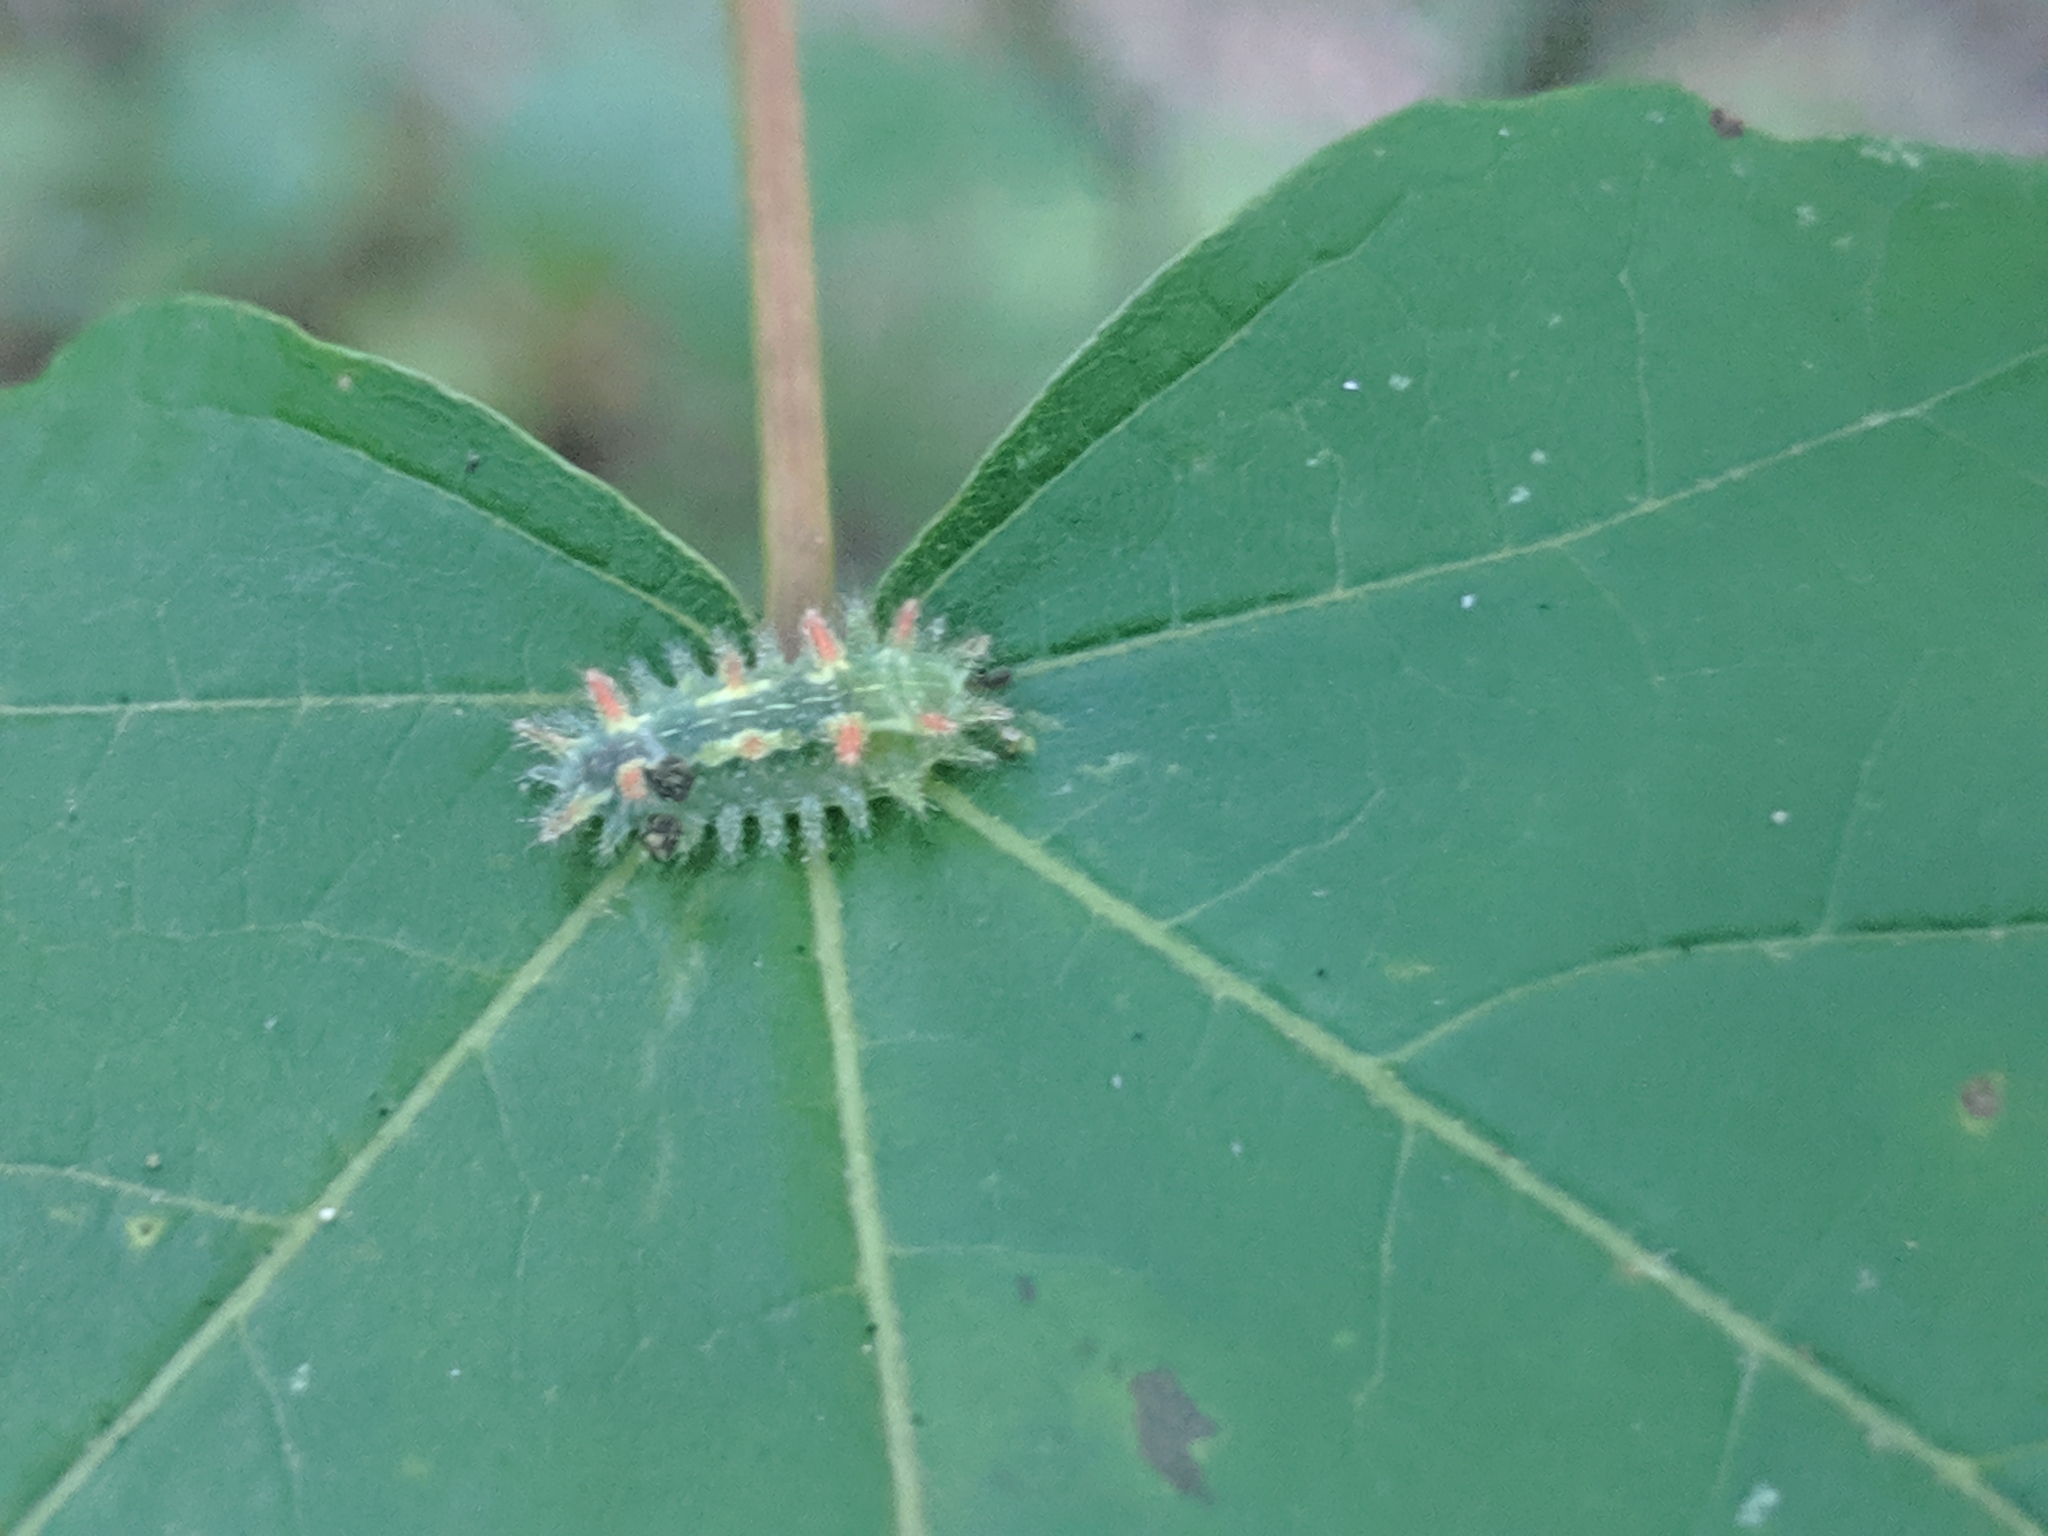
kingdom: Animalia
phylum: Arthropoda
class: Insecta
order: Lepidoptera
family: Limacodidae
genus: Euclea
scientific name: Euclea delphinii
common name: Spiny oak-slug moth
